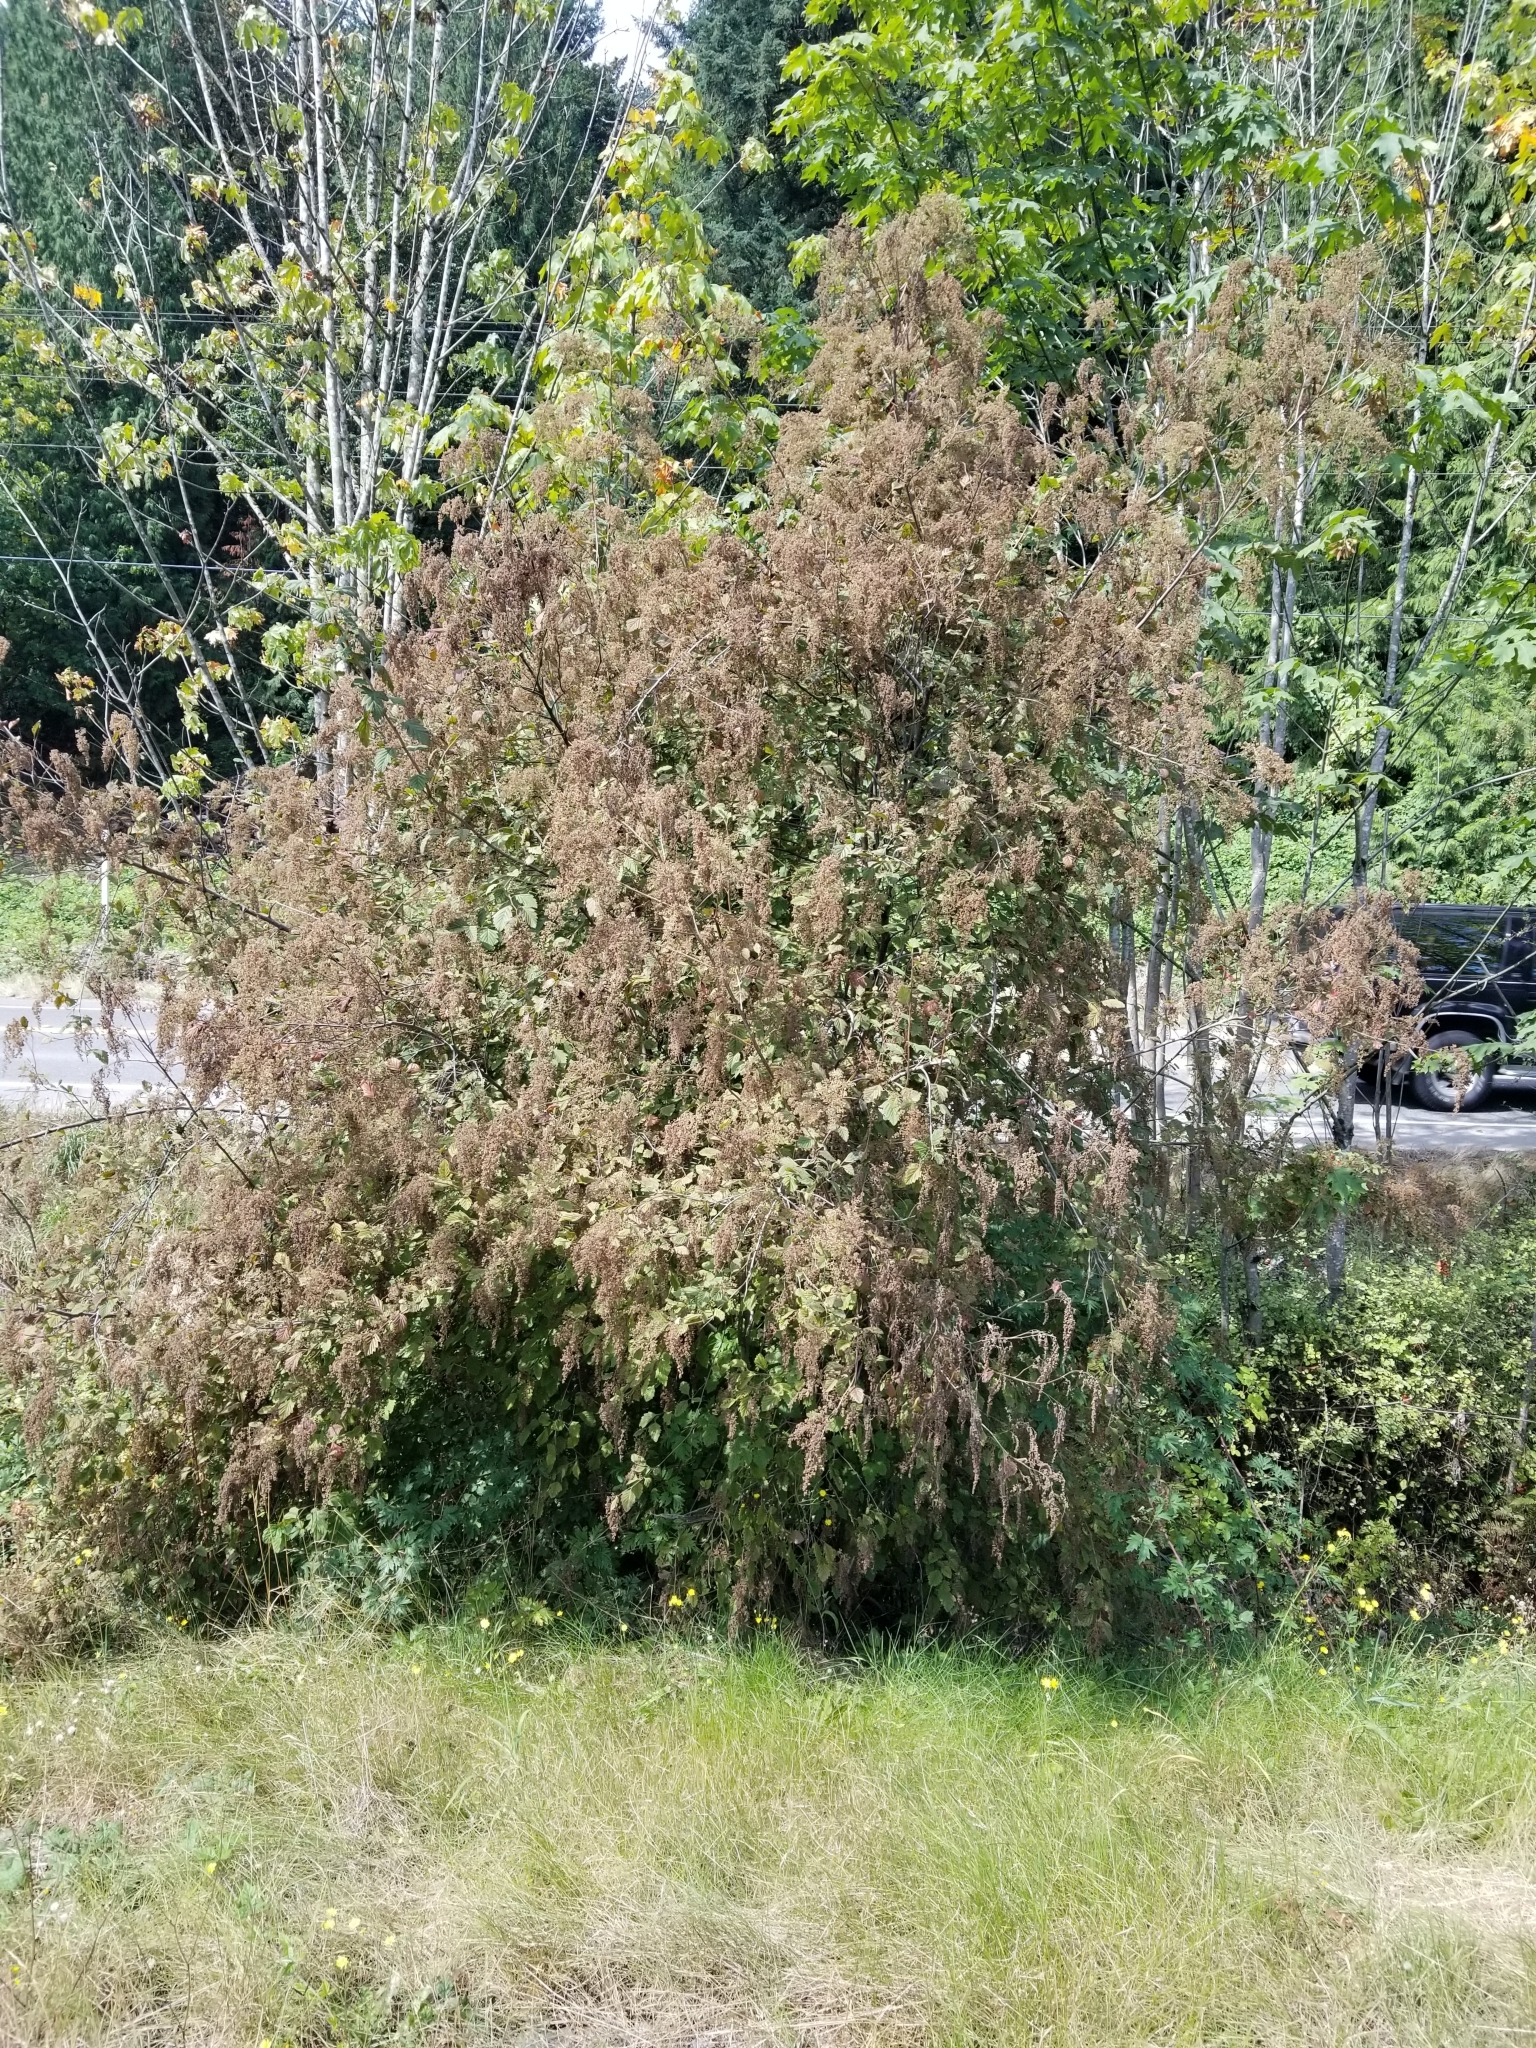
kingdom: Plantae
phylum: Tracheophyta
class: Magnoliopsida
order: Rosales
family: Rosaceae
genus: Holodiscus
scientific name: Holodiscus discolor
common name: Oceanspray
